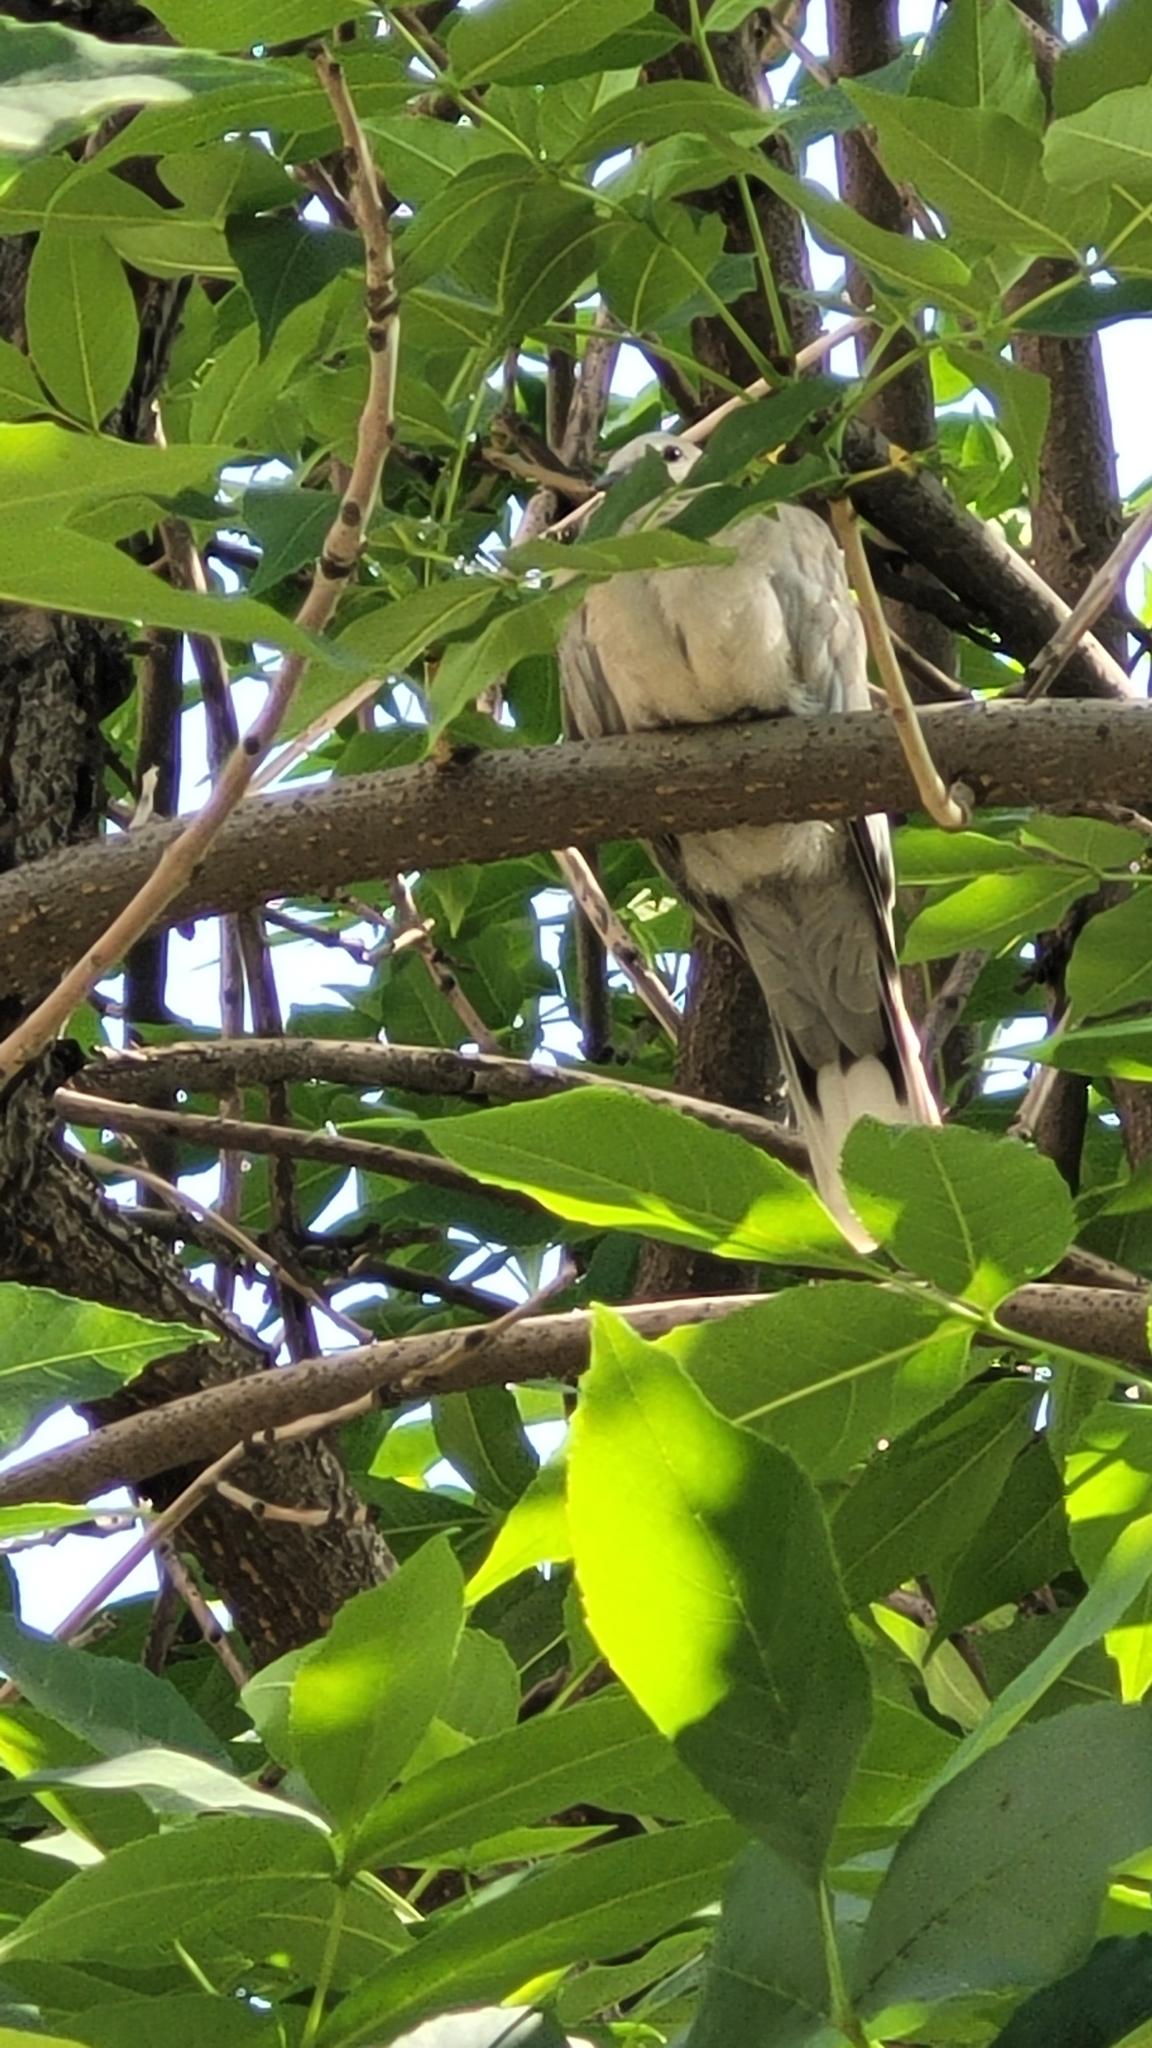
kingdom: Animalia
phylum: Chordata
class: Aves
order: Columbiformes
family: Columbidae
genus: Streptopelia
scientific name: Streptopelia decaocto
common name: Eurasian collared dove
